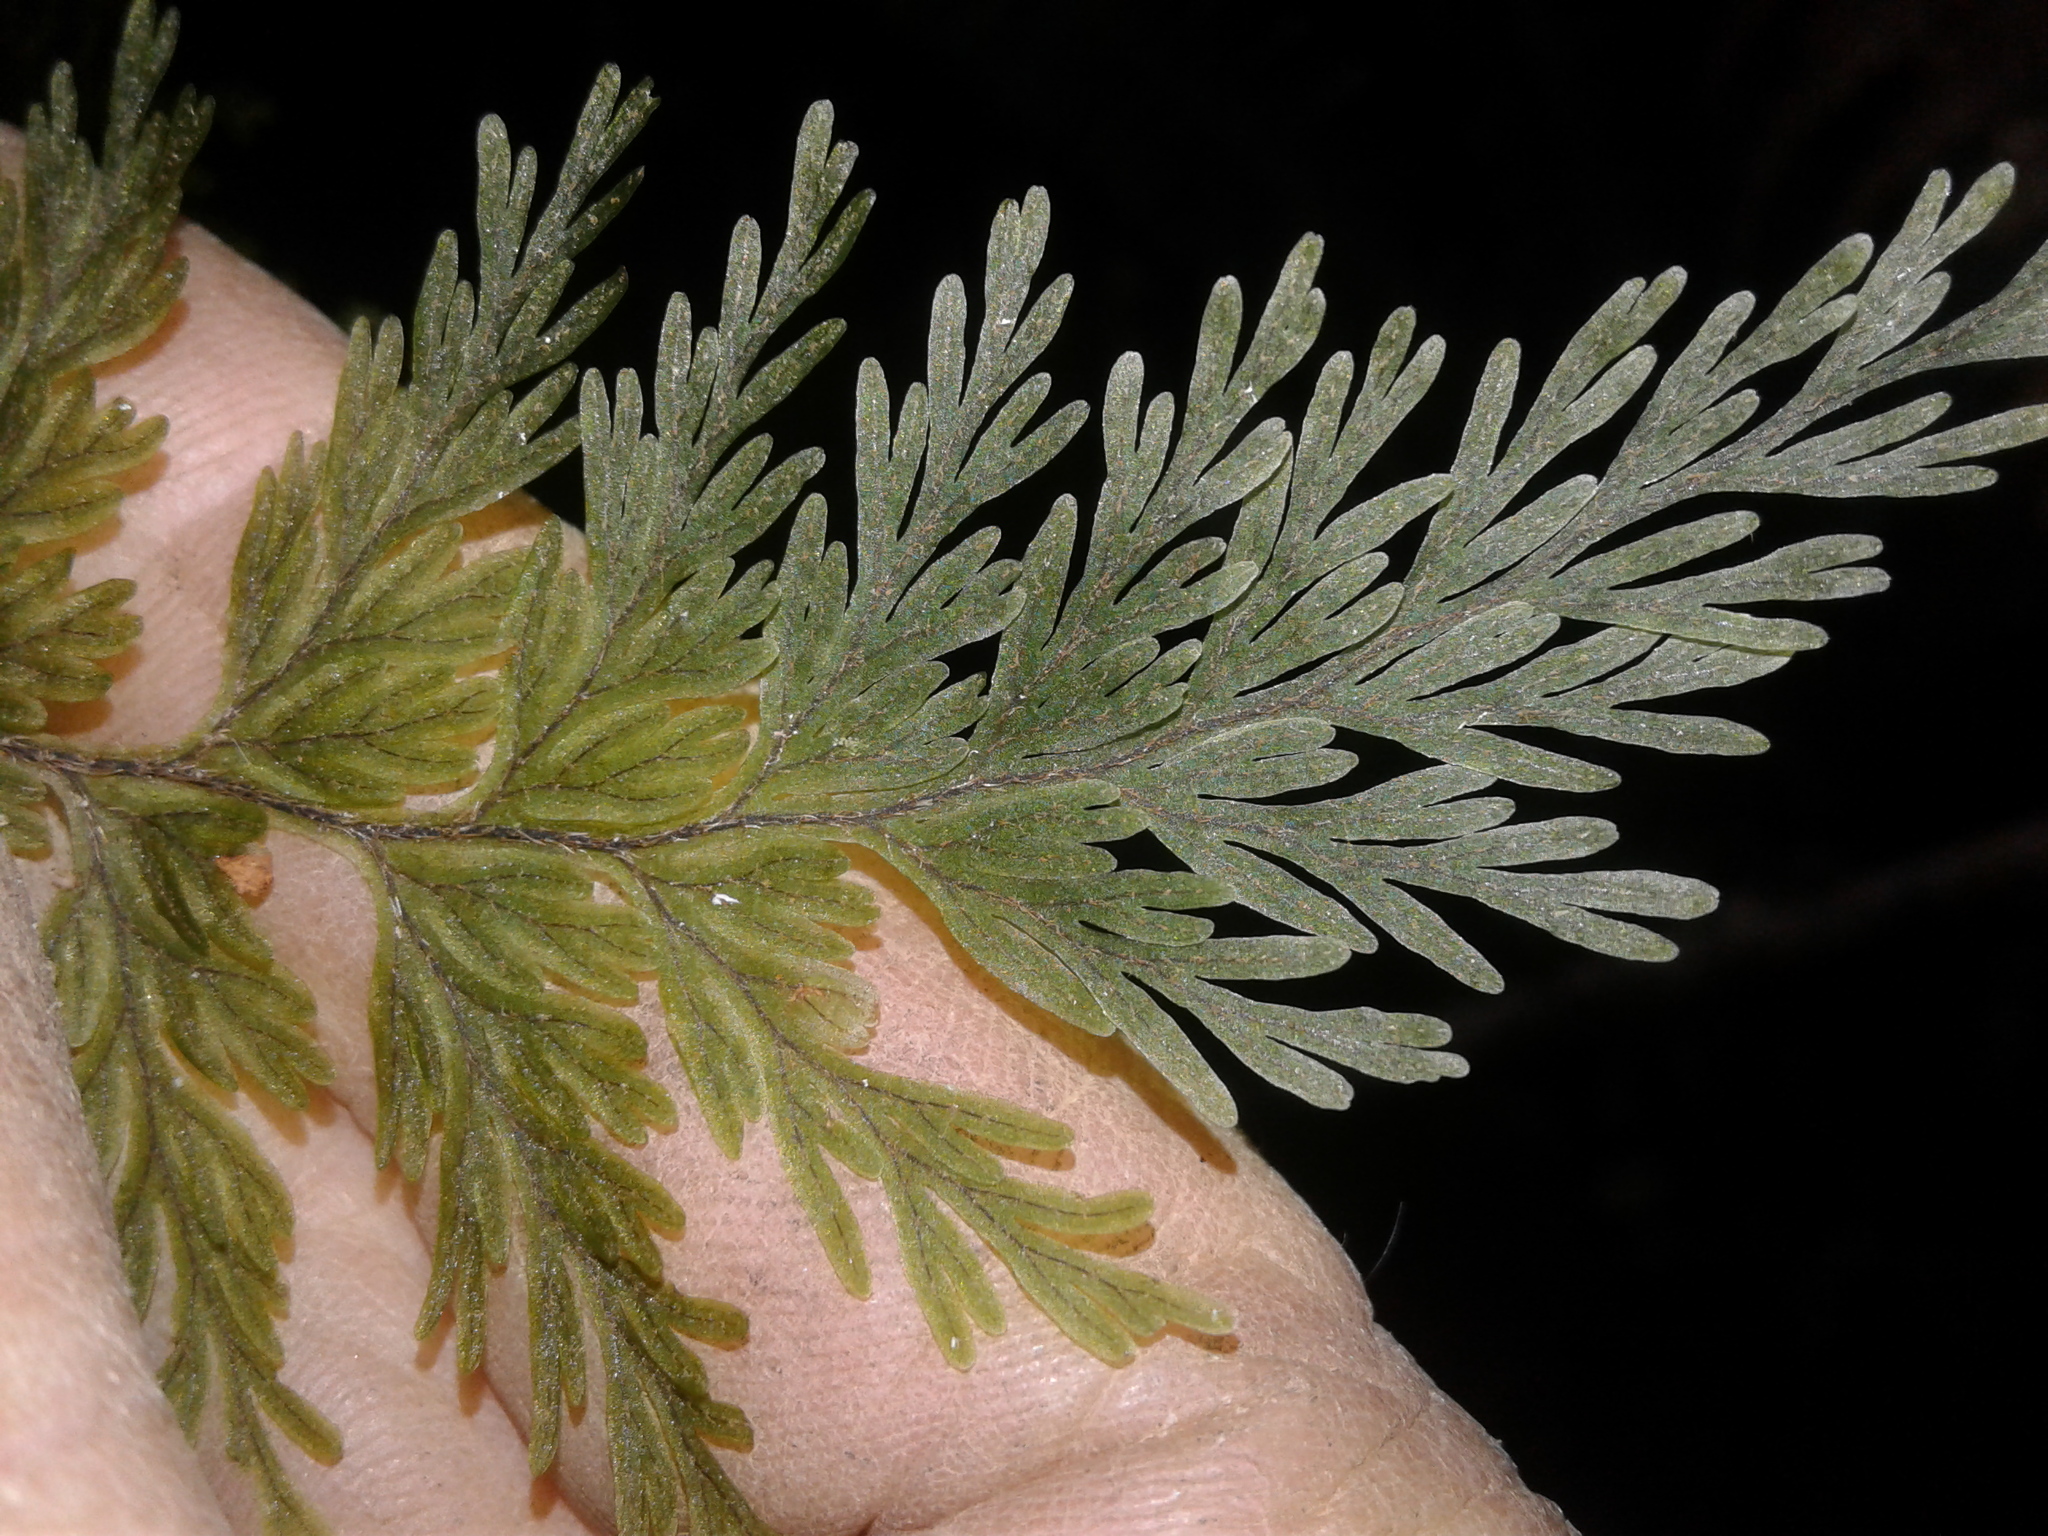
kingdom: Plantae
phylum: Tracheophyta
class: Polypodiopsida
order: Hymenophyllales
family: Hymenophyllaceae
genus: Hymenophyllum
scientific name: Hymenophyllum scabrum
